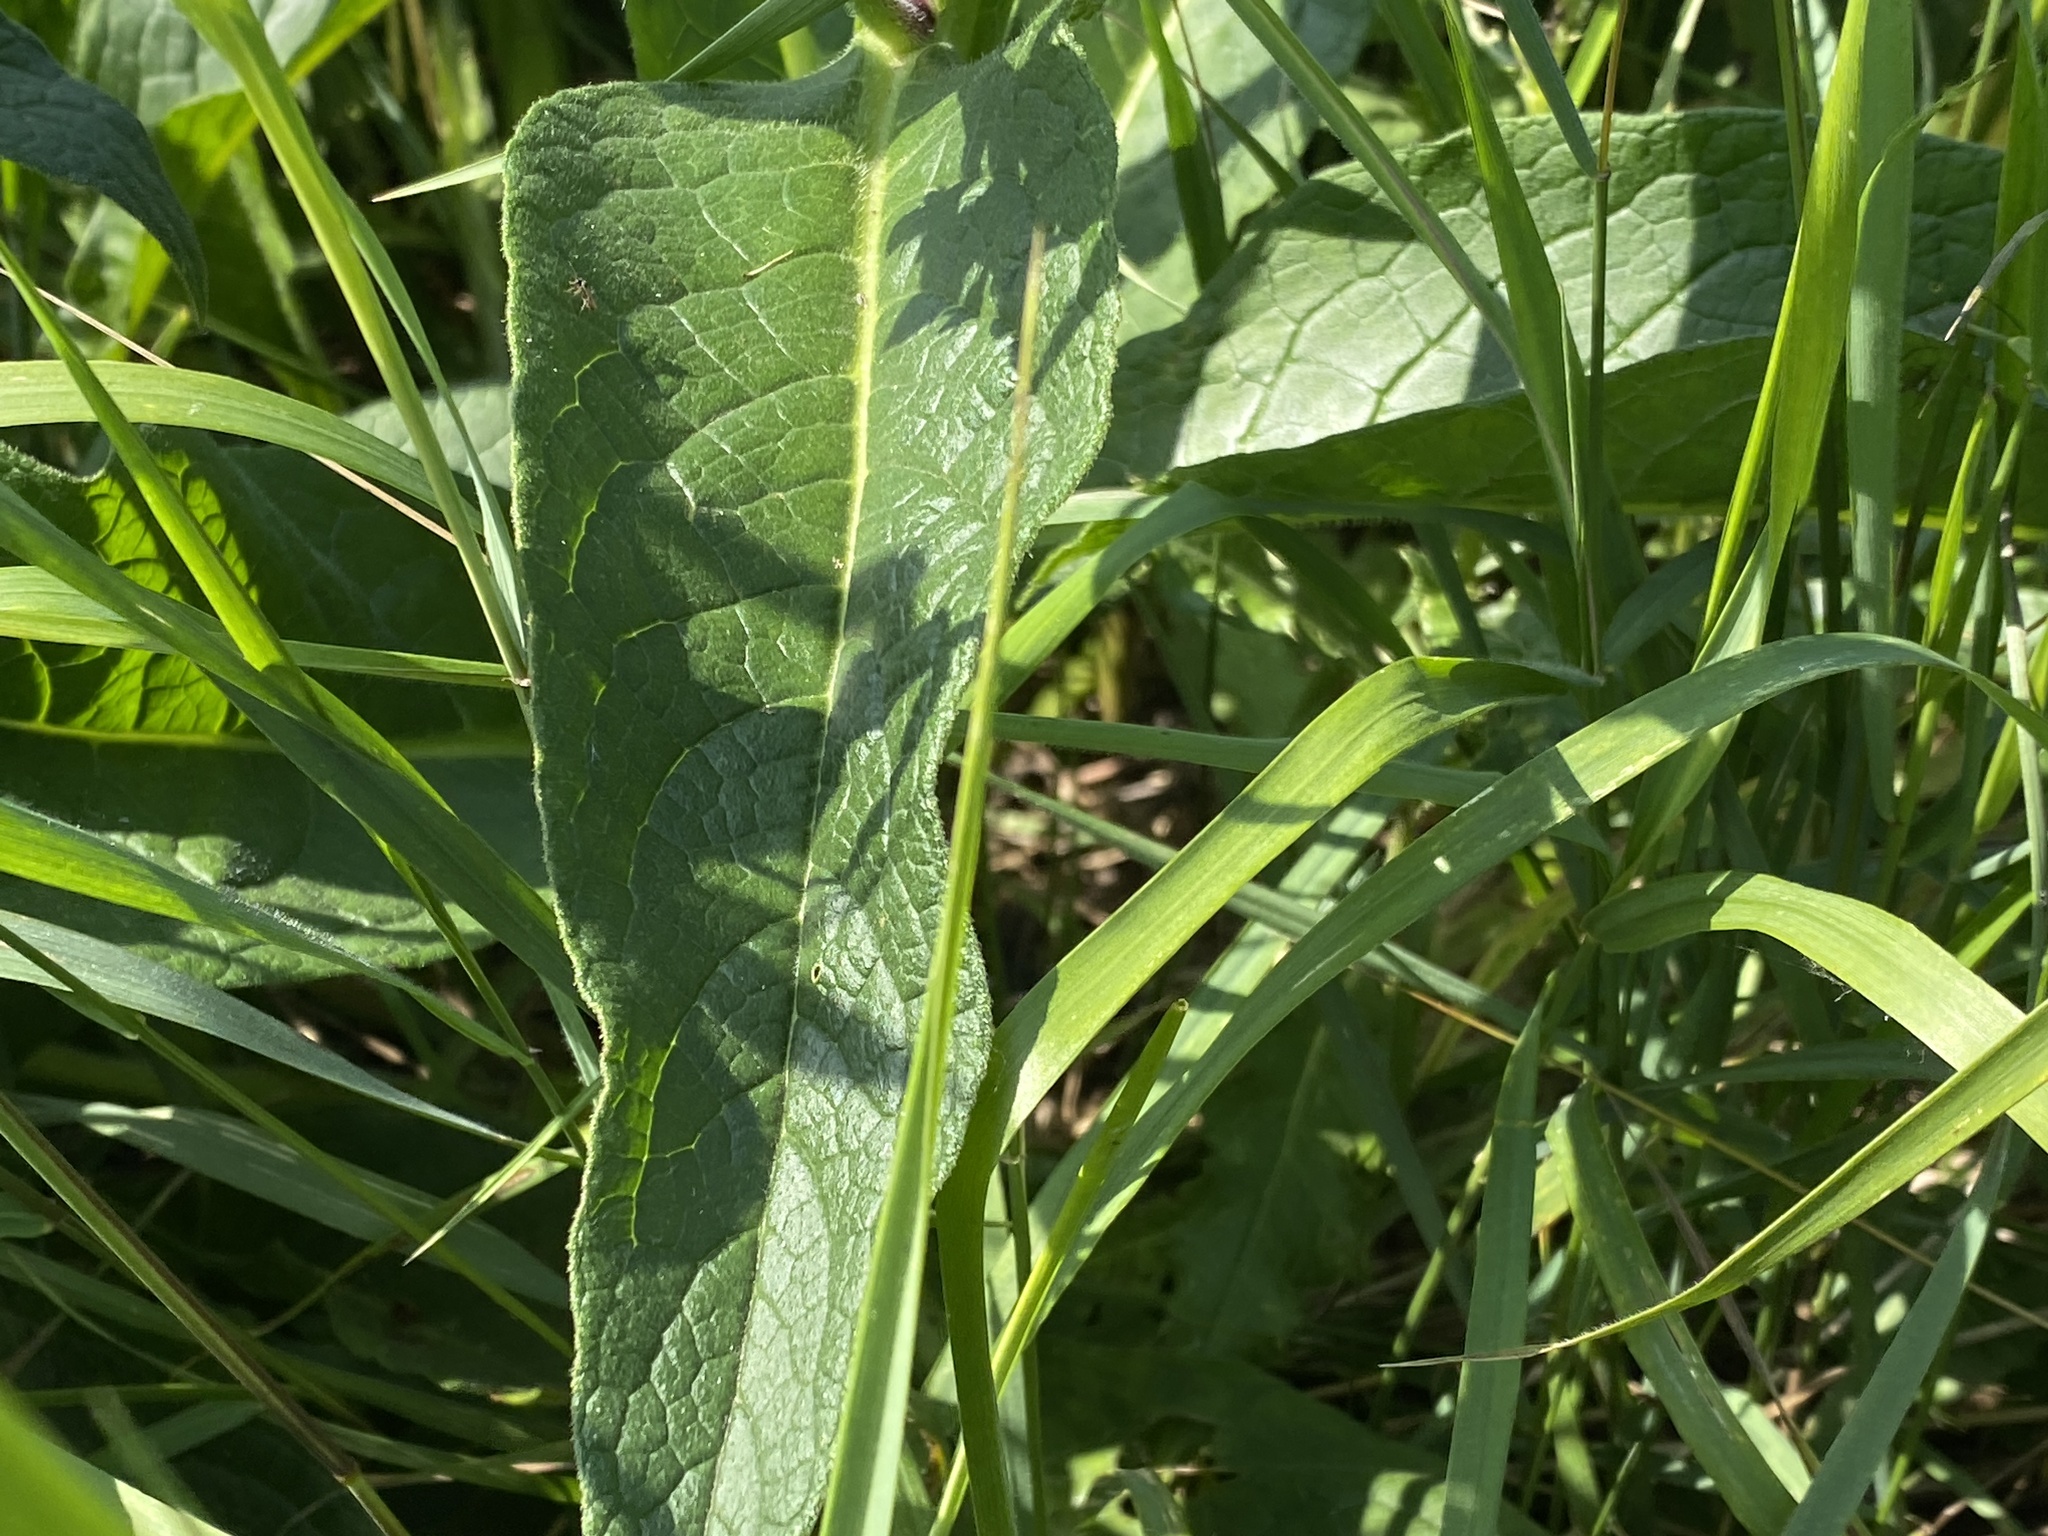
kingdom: Plantae
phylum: Tracheophyta
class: Magnoliopsida
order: Boraginales
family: Boraginaceae
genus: Symphytum
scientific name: Symphytum officinale
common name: Common comfrey
